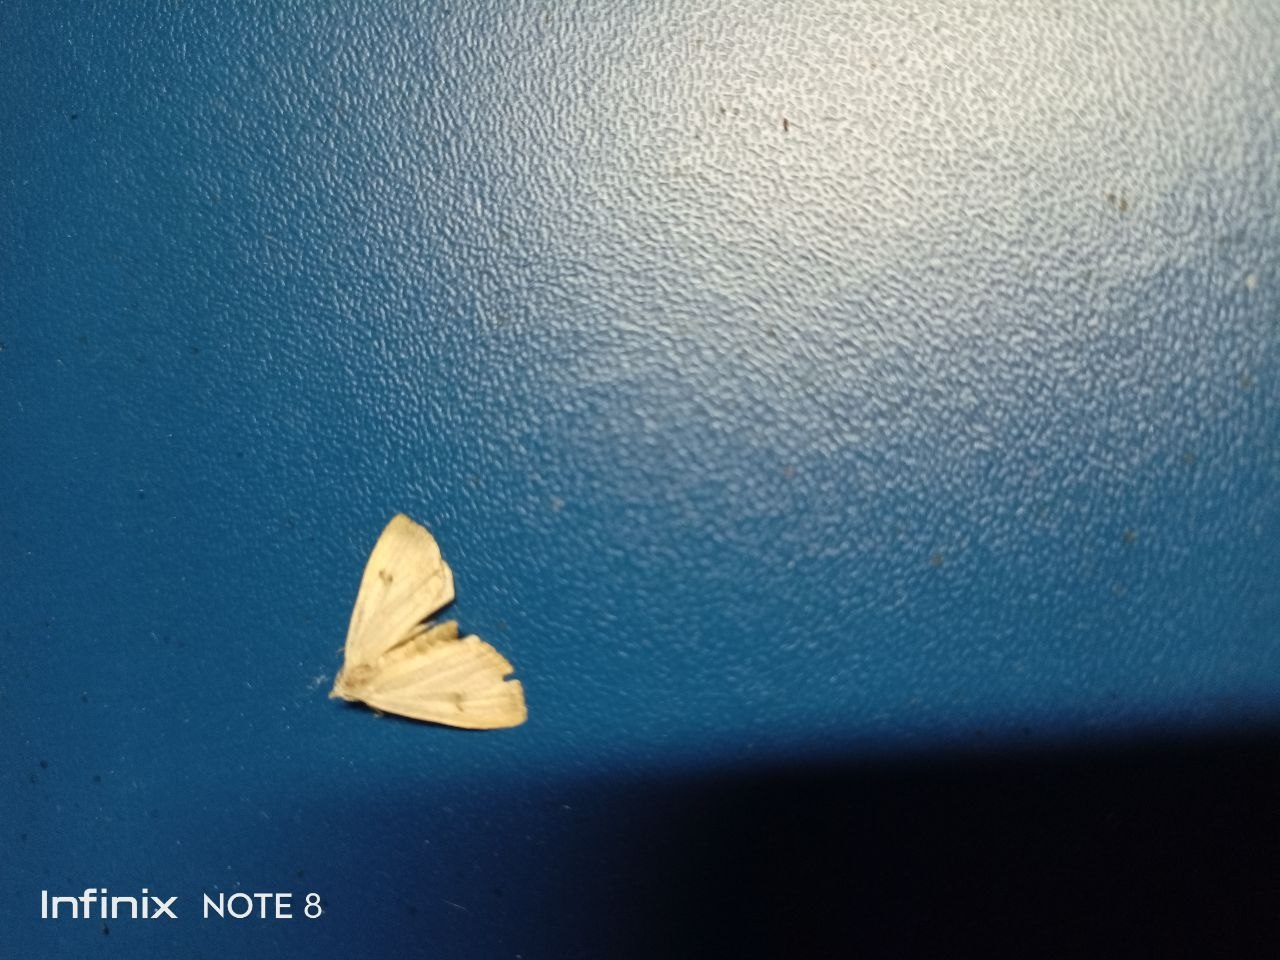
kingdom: Animalia
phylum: Arthropoda
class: Insecta
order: Lepidoptera
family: Erebidae
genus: Rivula
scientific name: Rivula sericealis
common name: Straw dot
